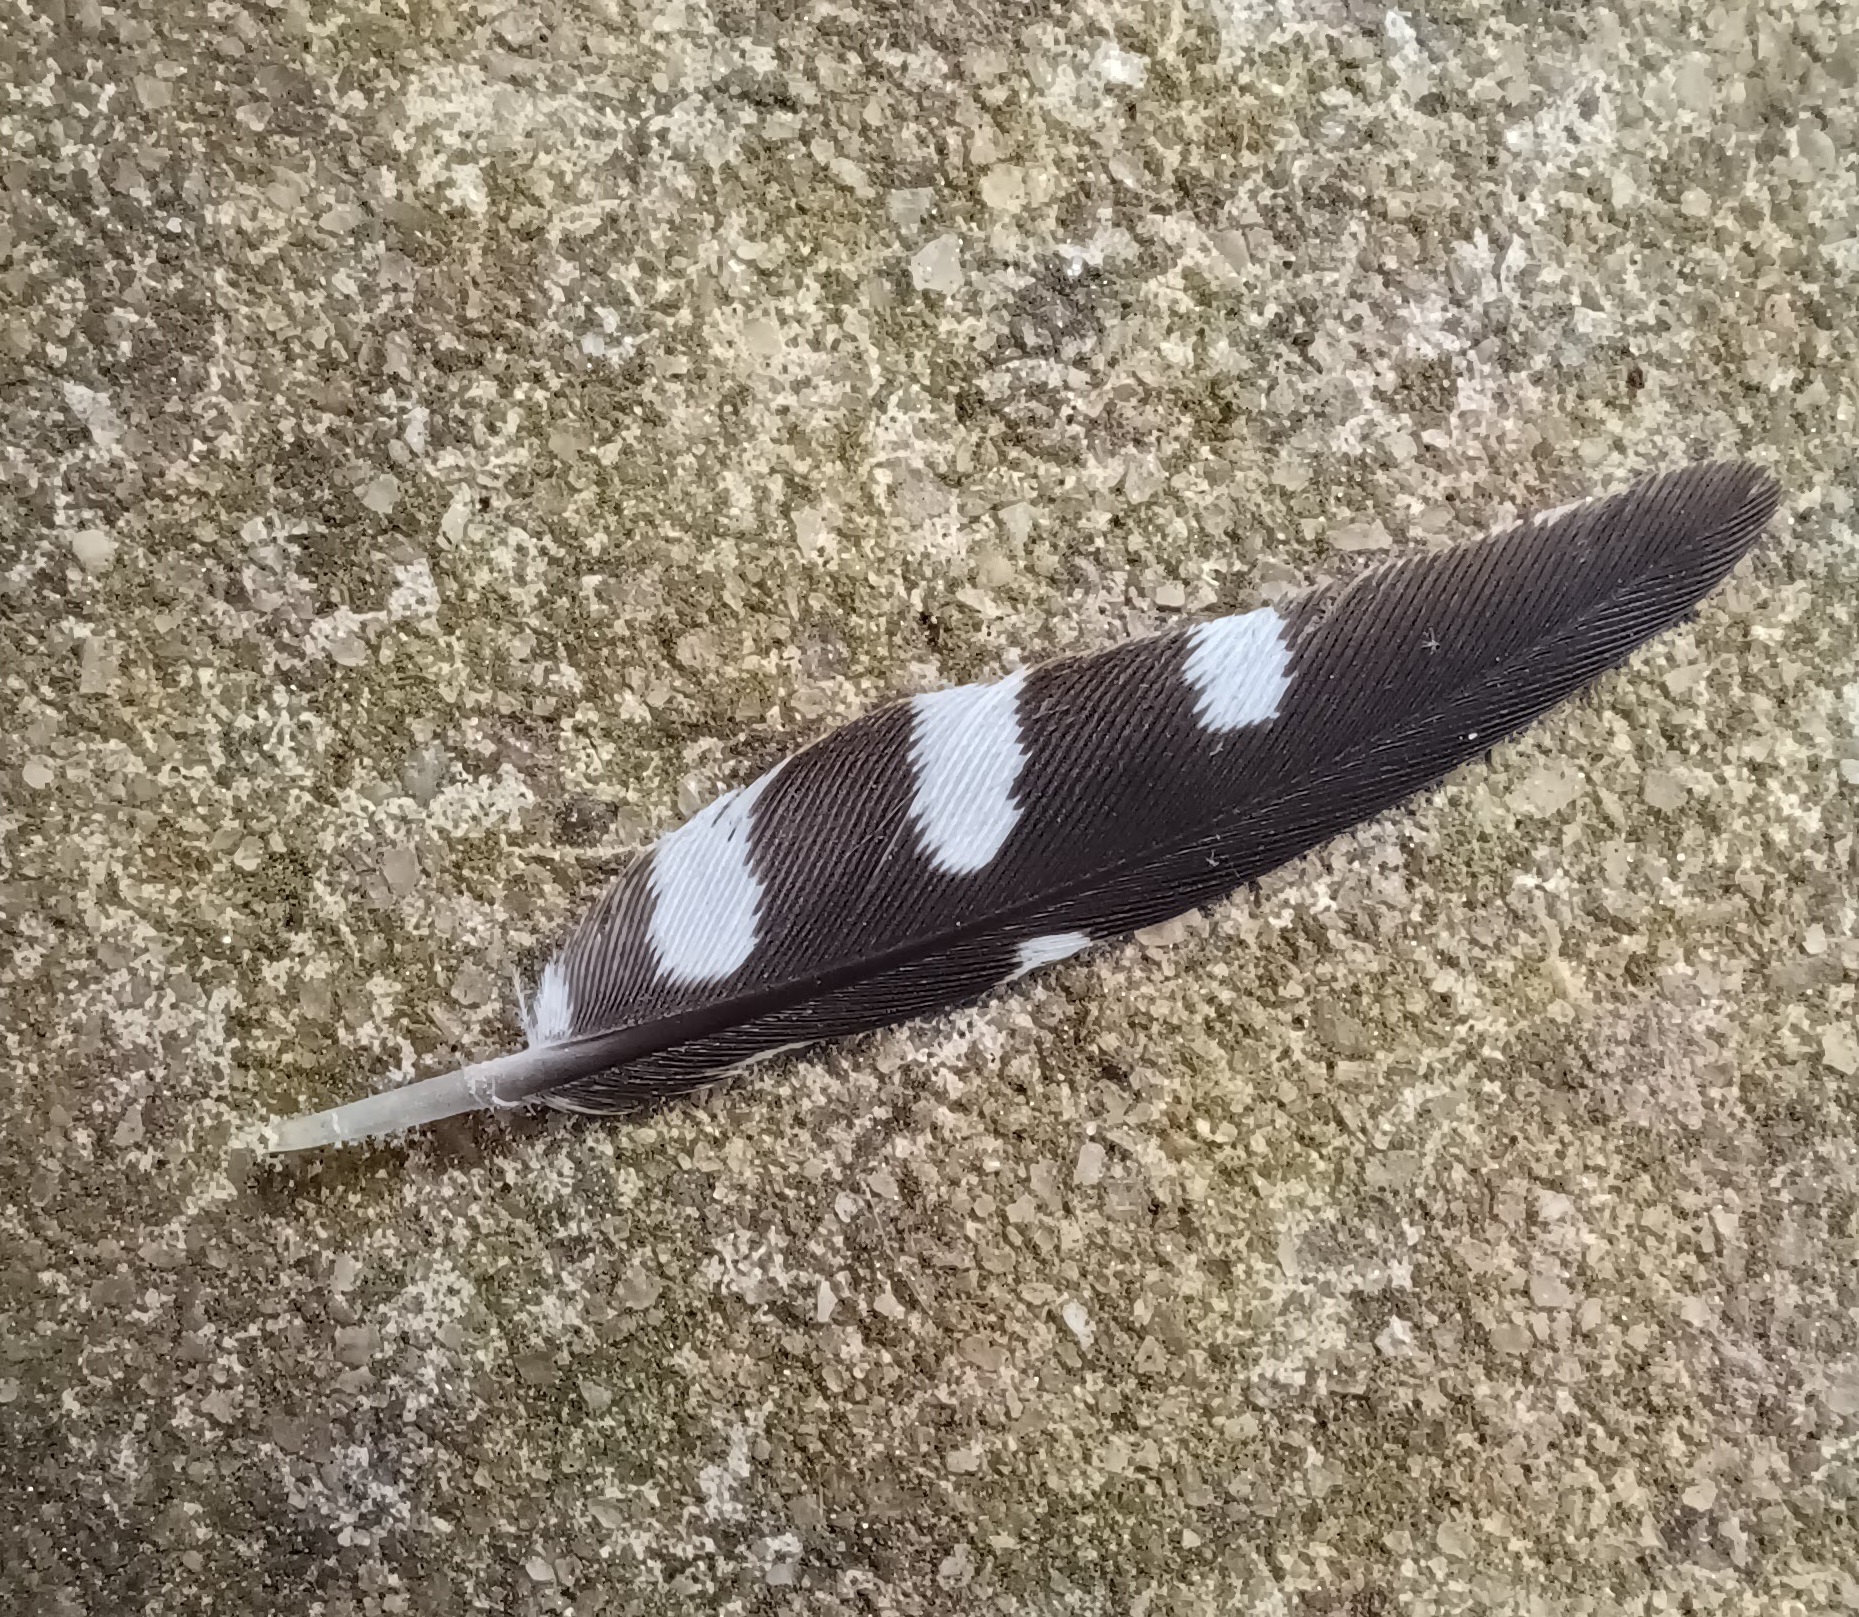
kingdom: Animalia
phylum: Chordata
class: Aves
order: Piciformes
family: Picidae
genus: Melanerpes
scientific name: Melanerpes carolinus
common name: Red-bellied woodpecker
